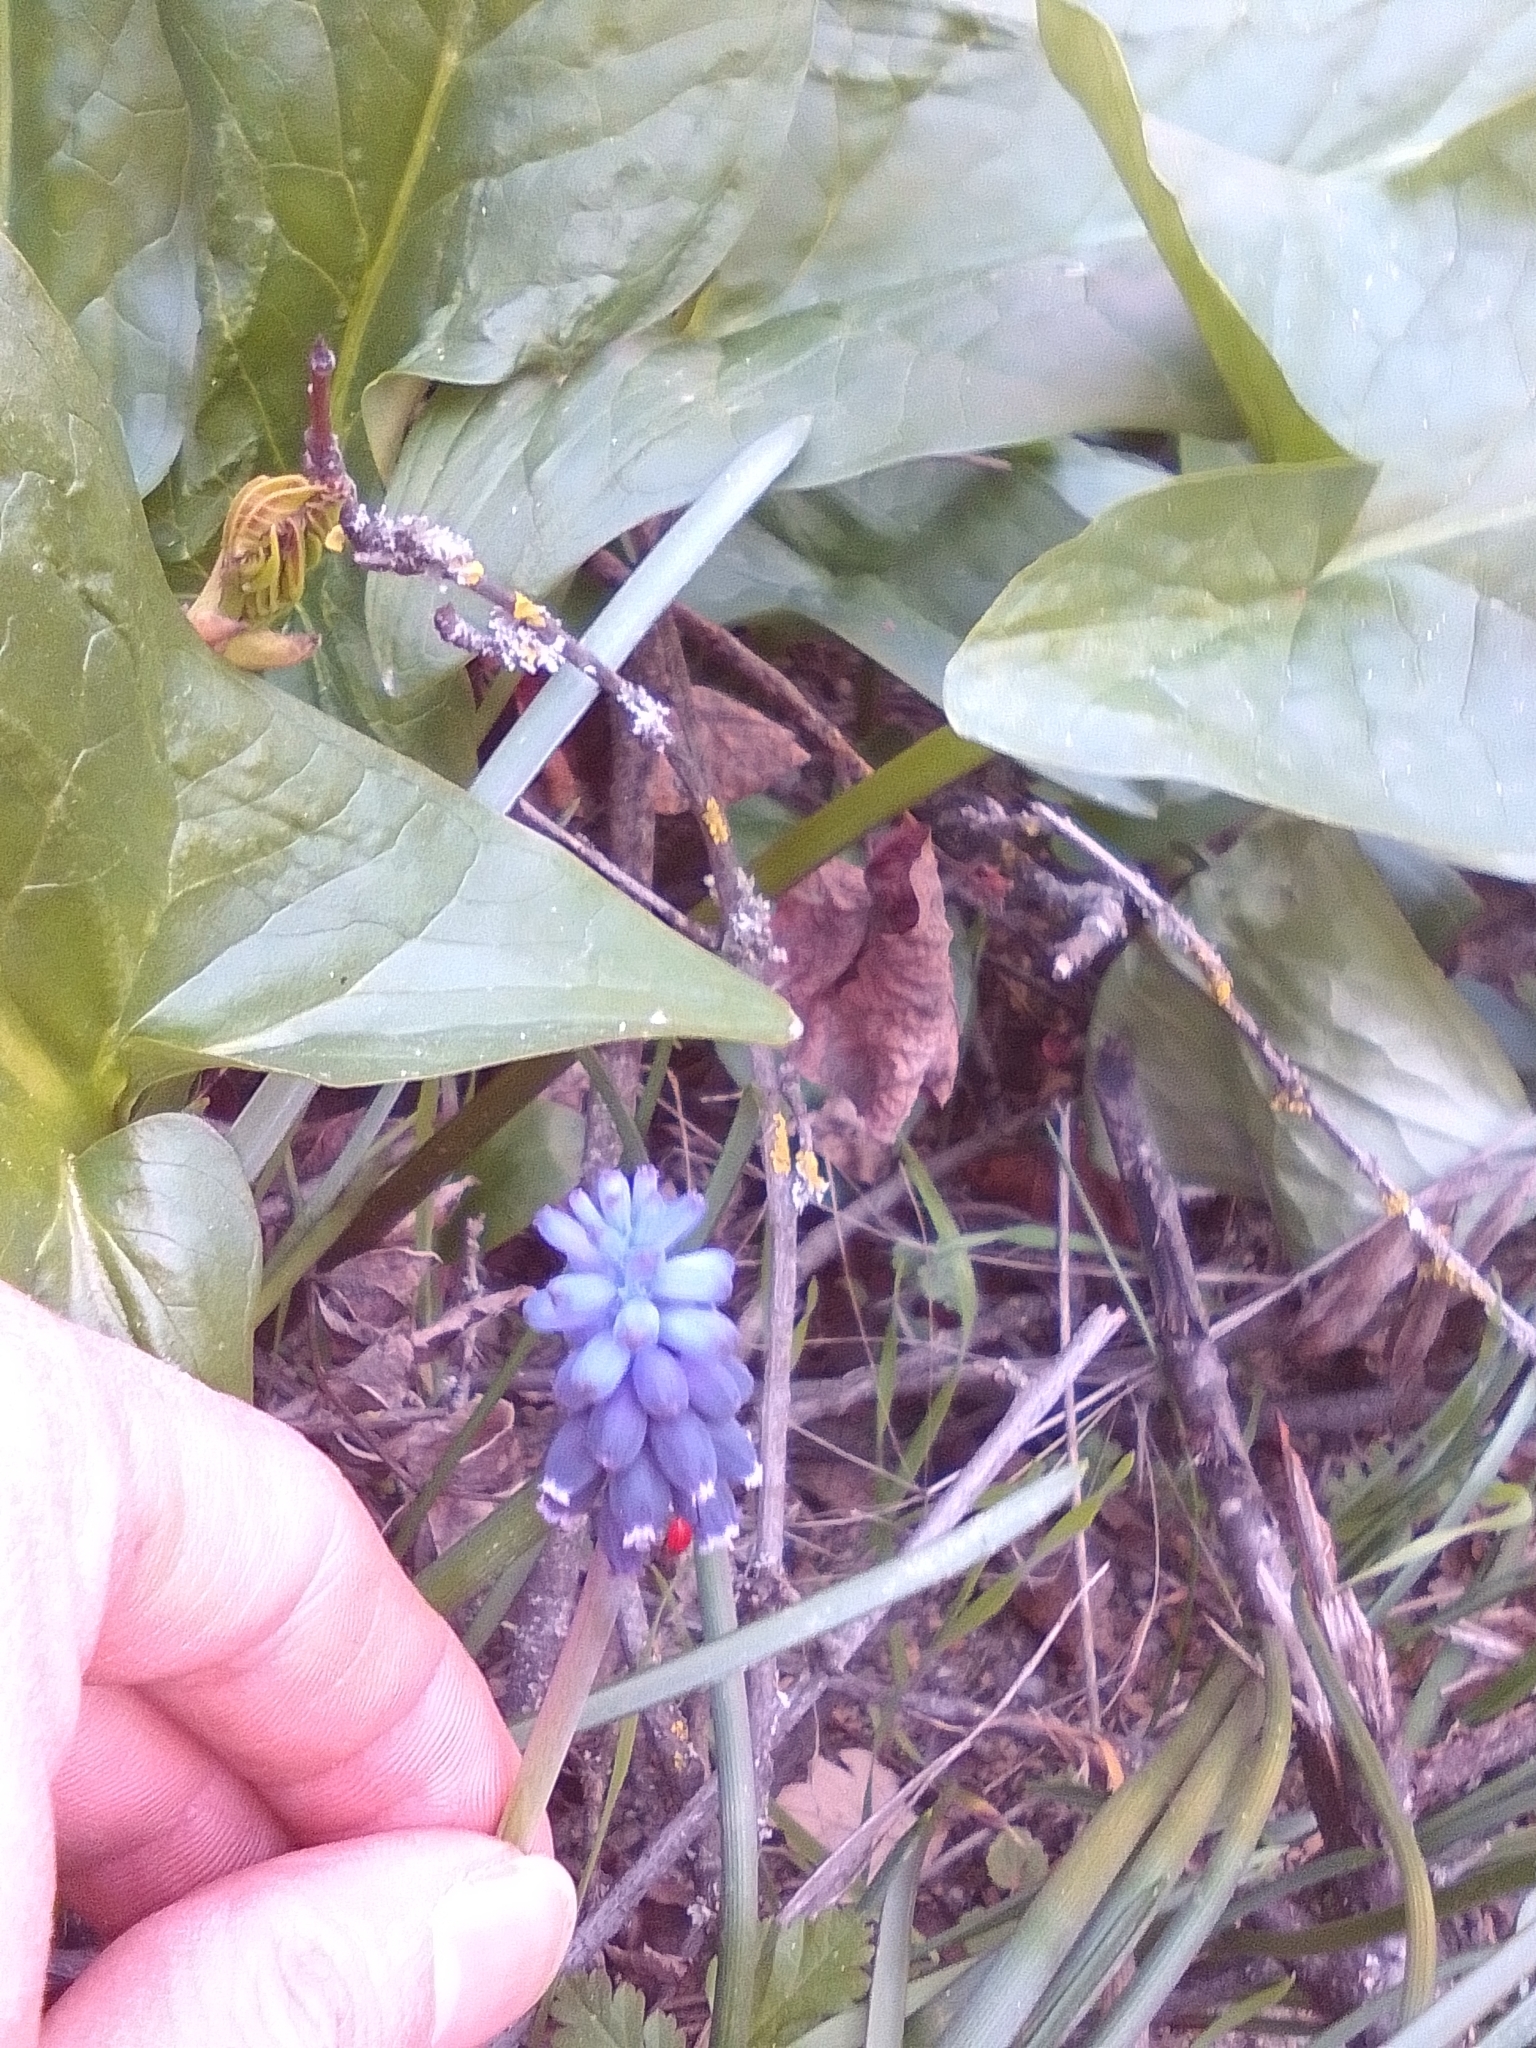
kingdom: Plantae
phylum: Tracheophyta
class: Liliopsida
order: Asparagales
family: Asparagaceae
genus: Muscari
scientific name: Muscari neglectum
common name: Grape-hyacinth
